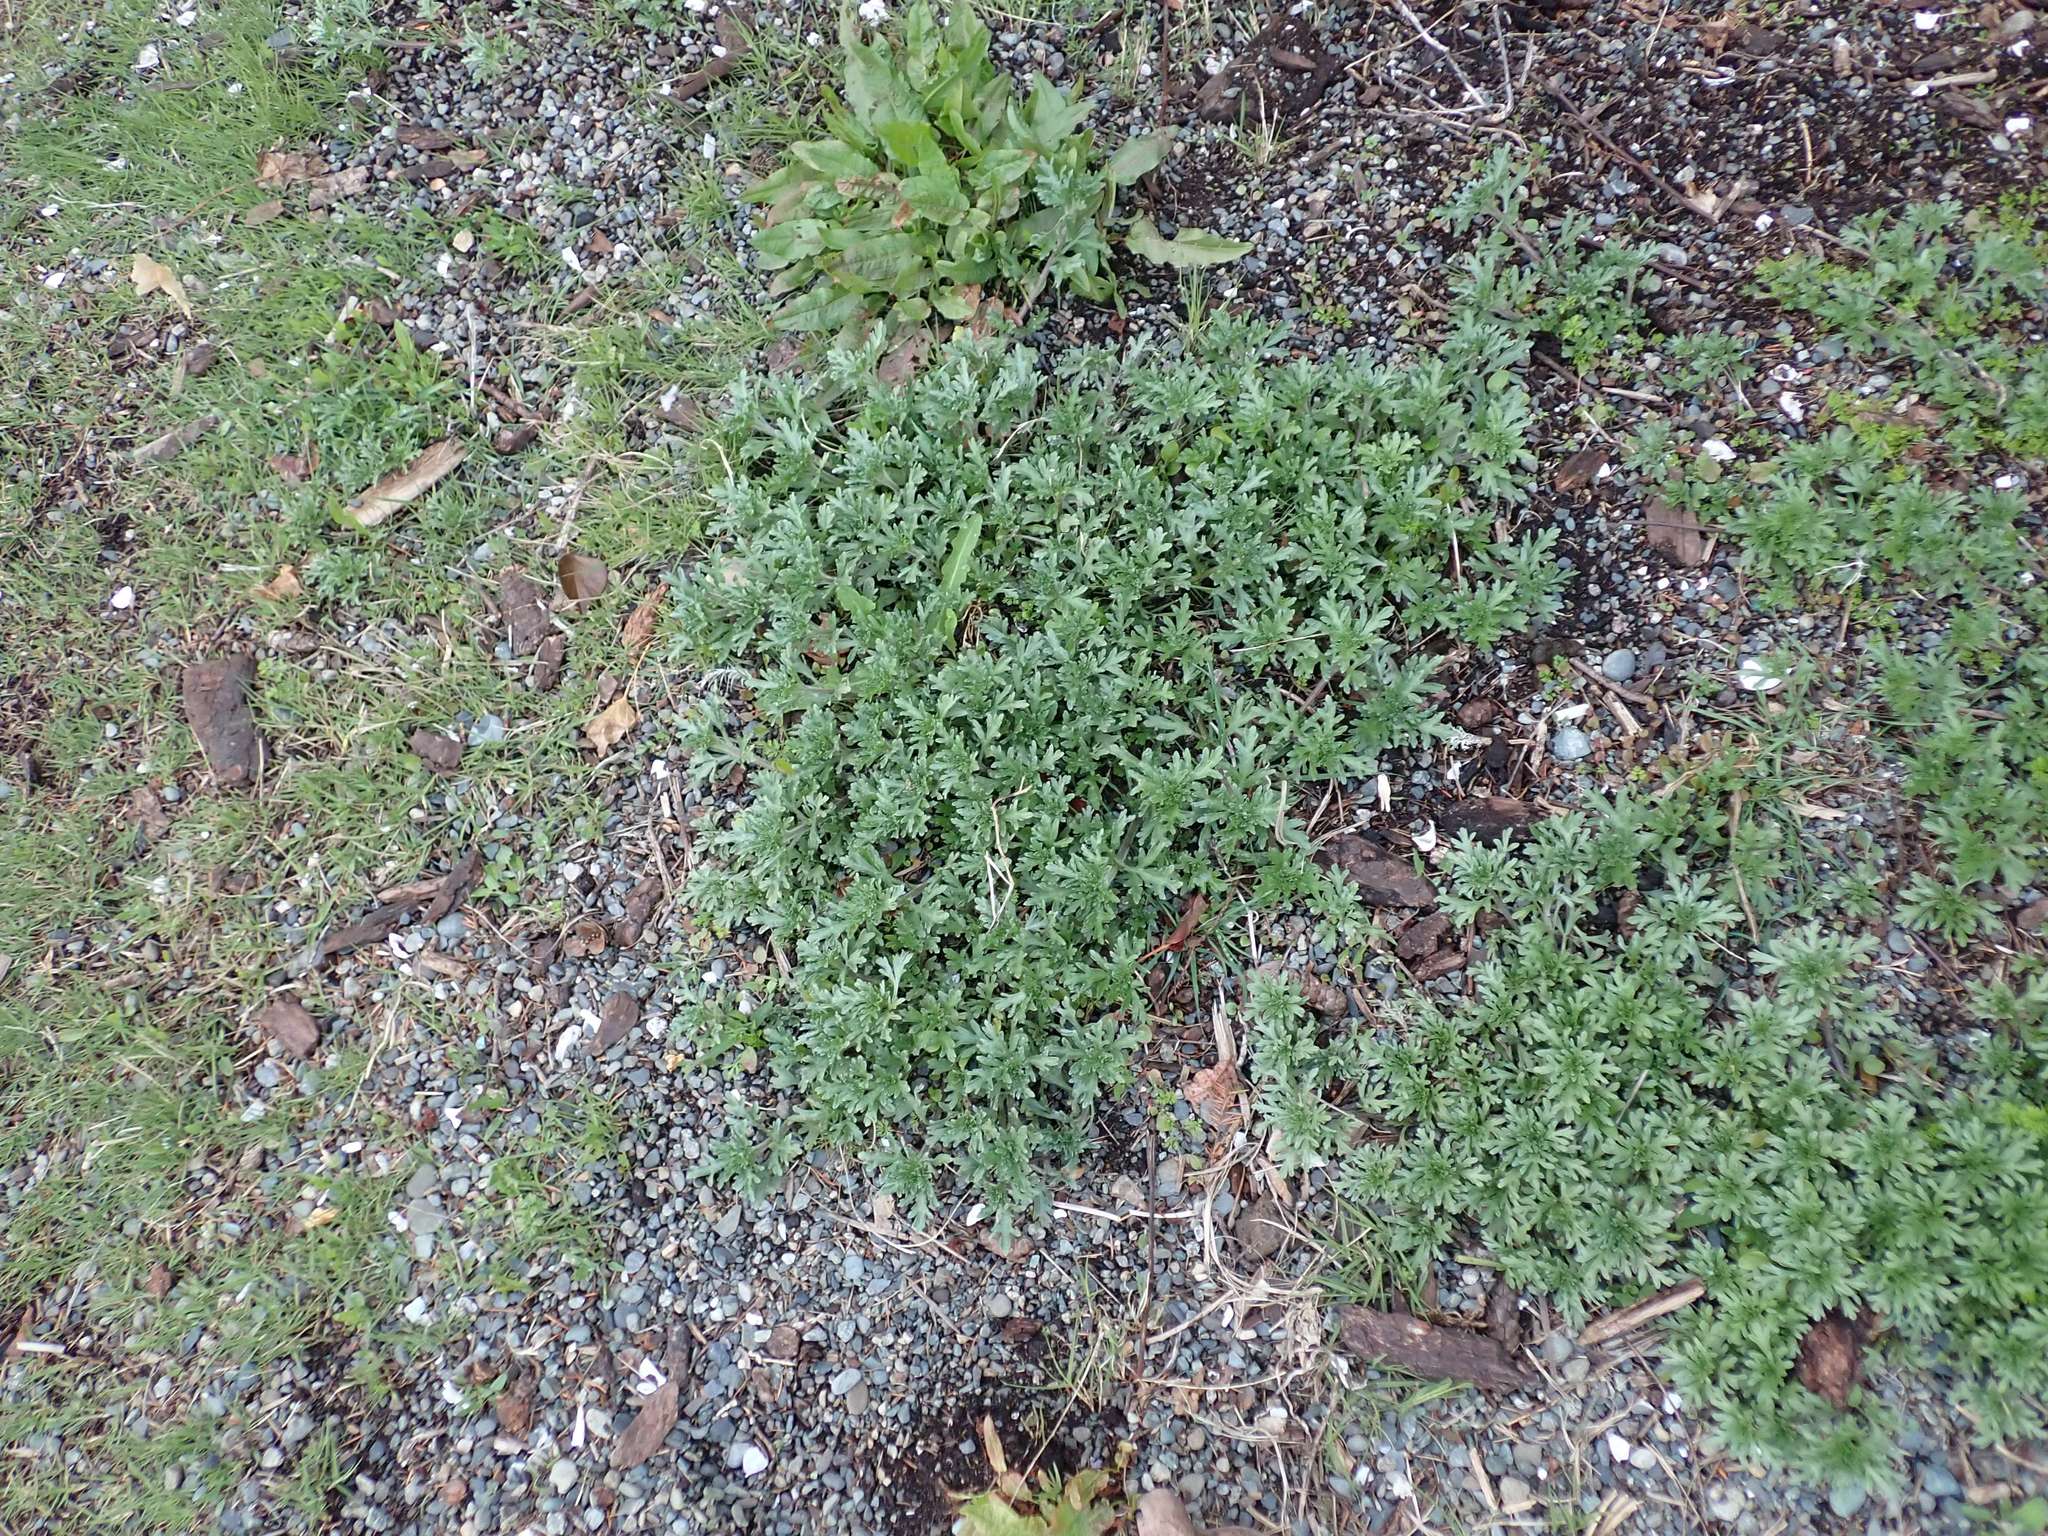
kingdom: Plantae
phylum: Tracheophyta
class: Magnoliopsida
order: Asterales
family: Asteraceae
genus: Ambrosia
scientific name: Ambrosia chamissonis
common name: Beachbur
